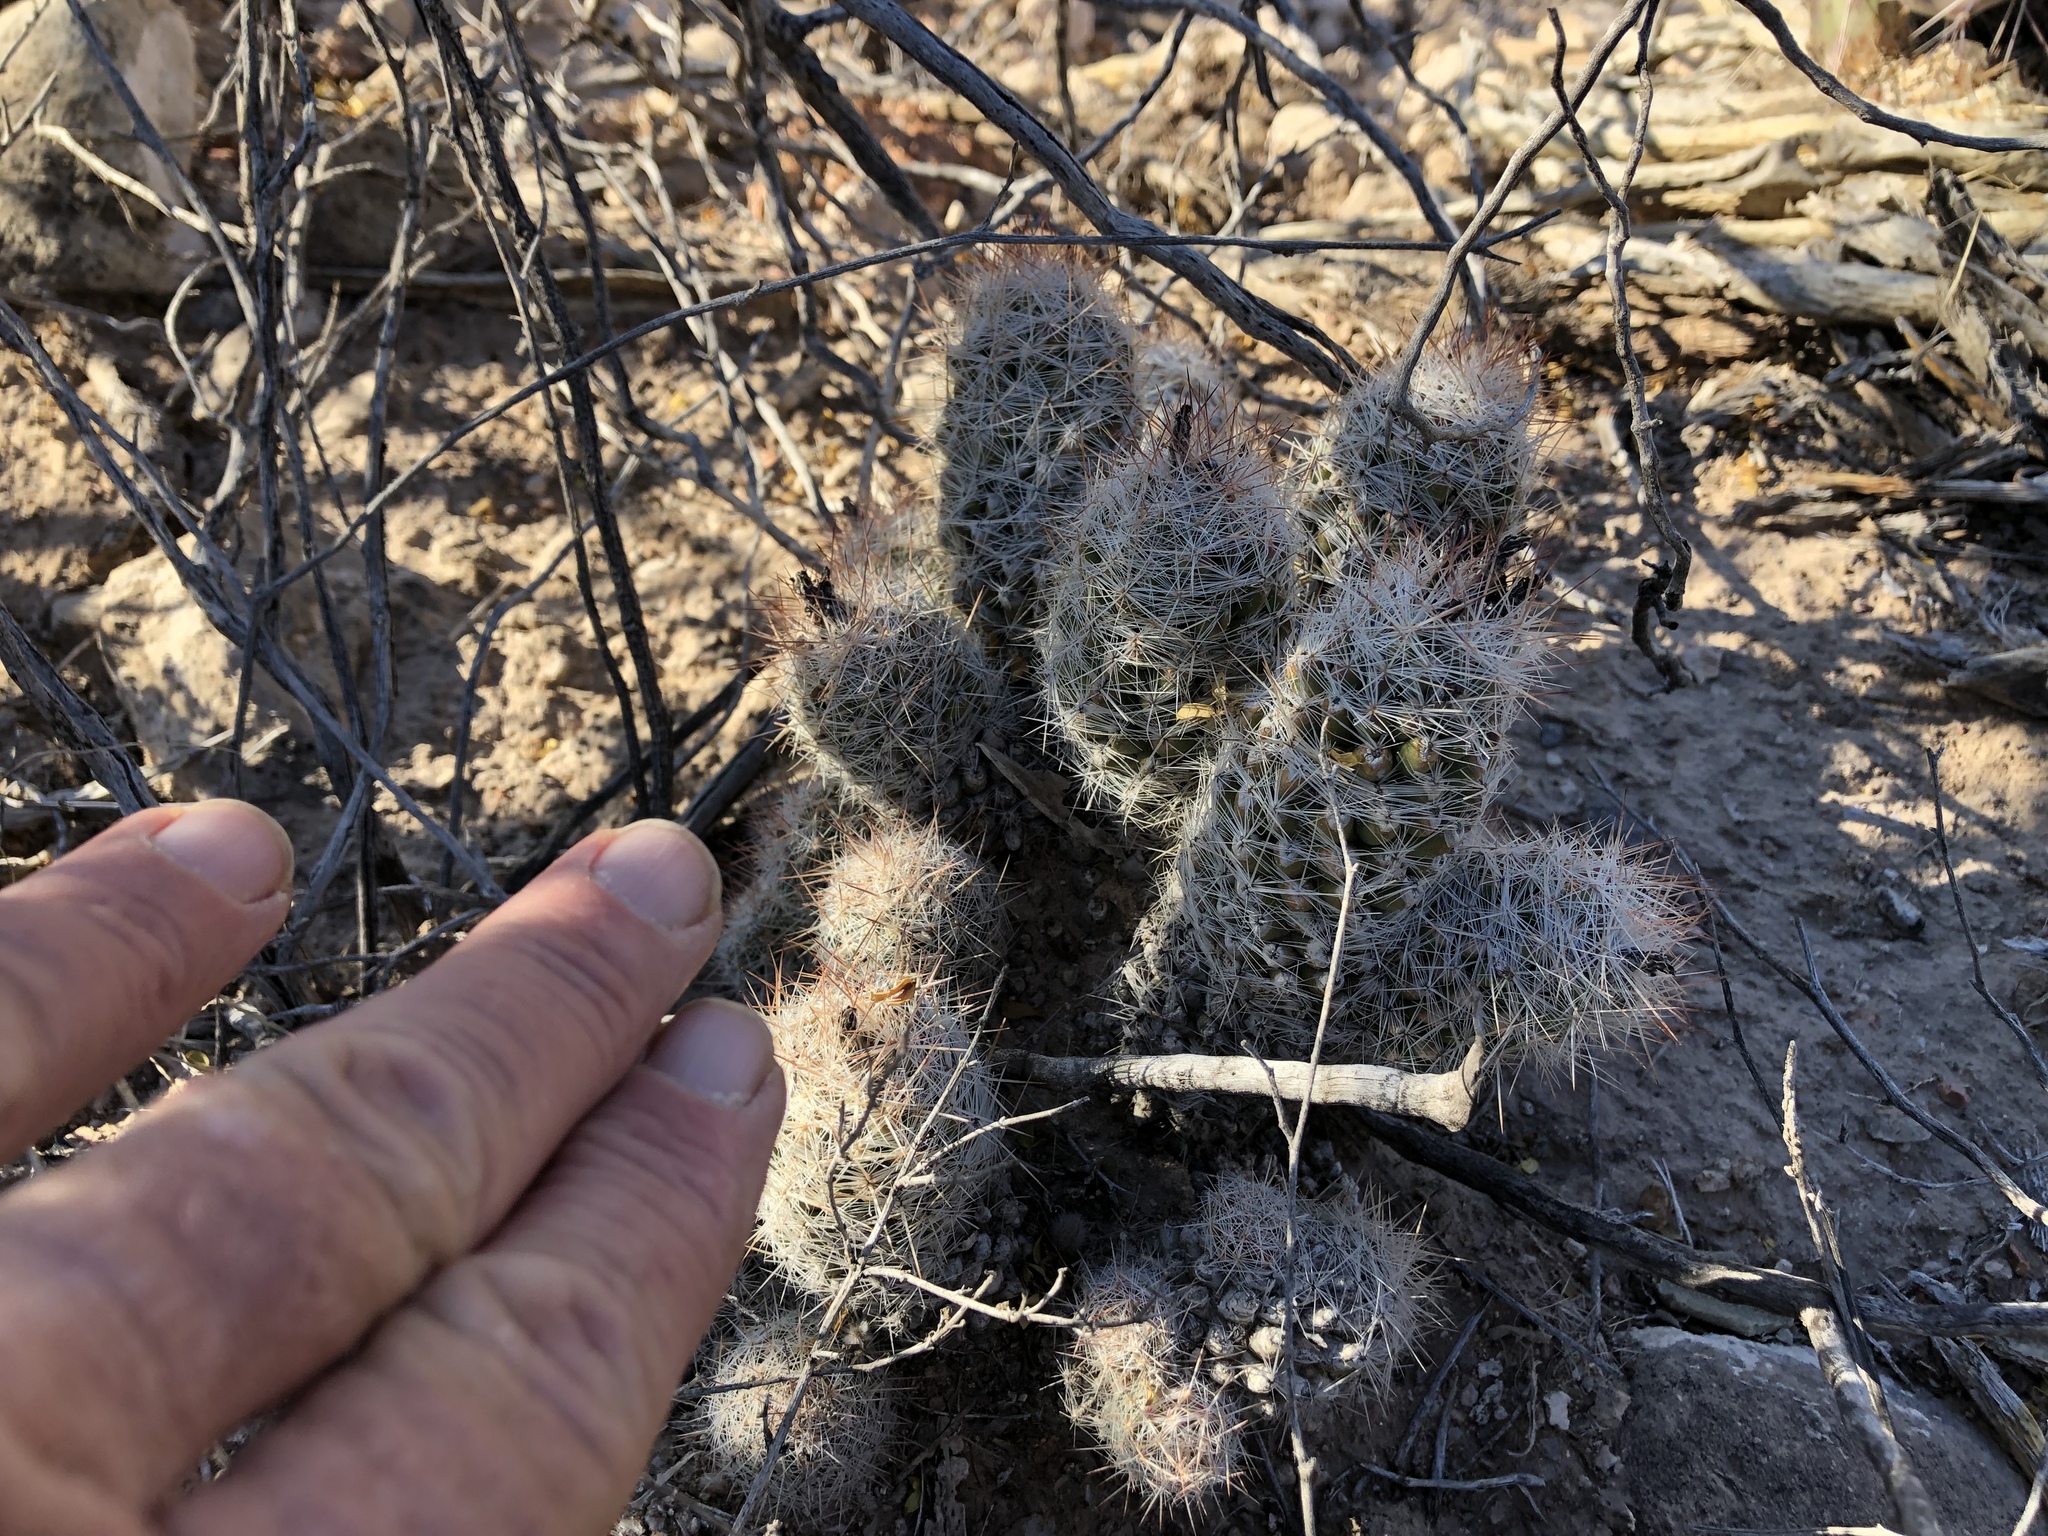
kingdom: Plantae
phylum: Tracheophyta
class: Magnoliopsida
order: Caryophyllales
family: Cactaceae
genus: Pelecyphora
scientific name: Pelecyphora tuberculosa
